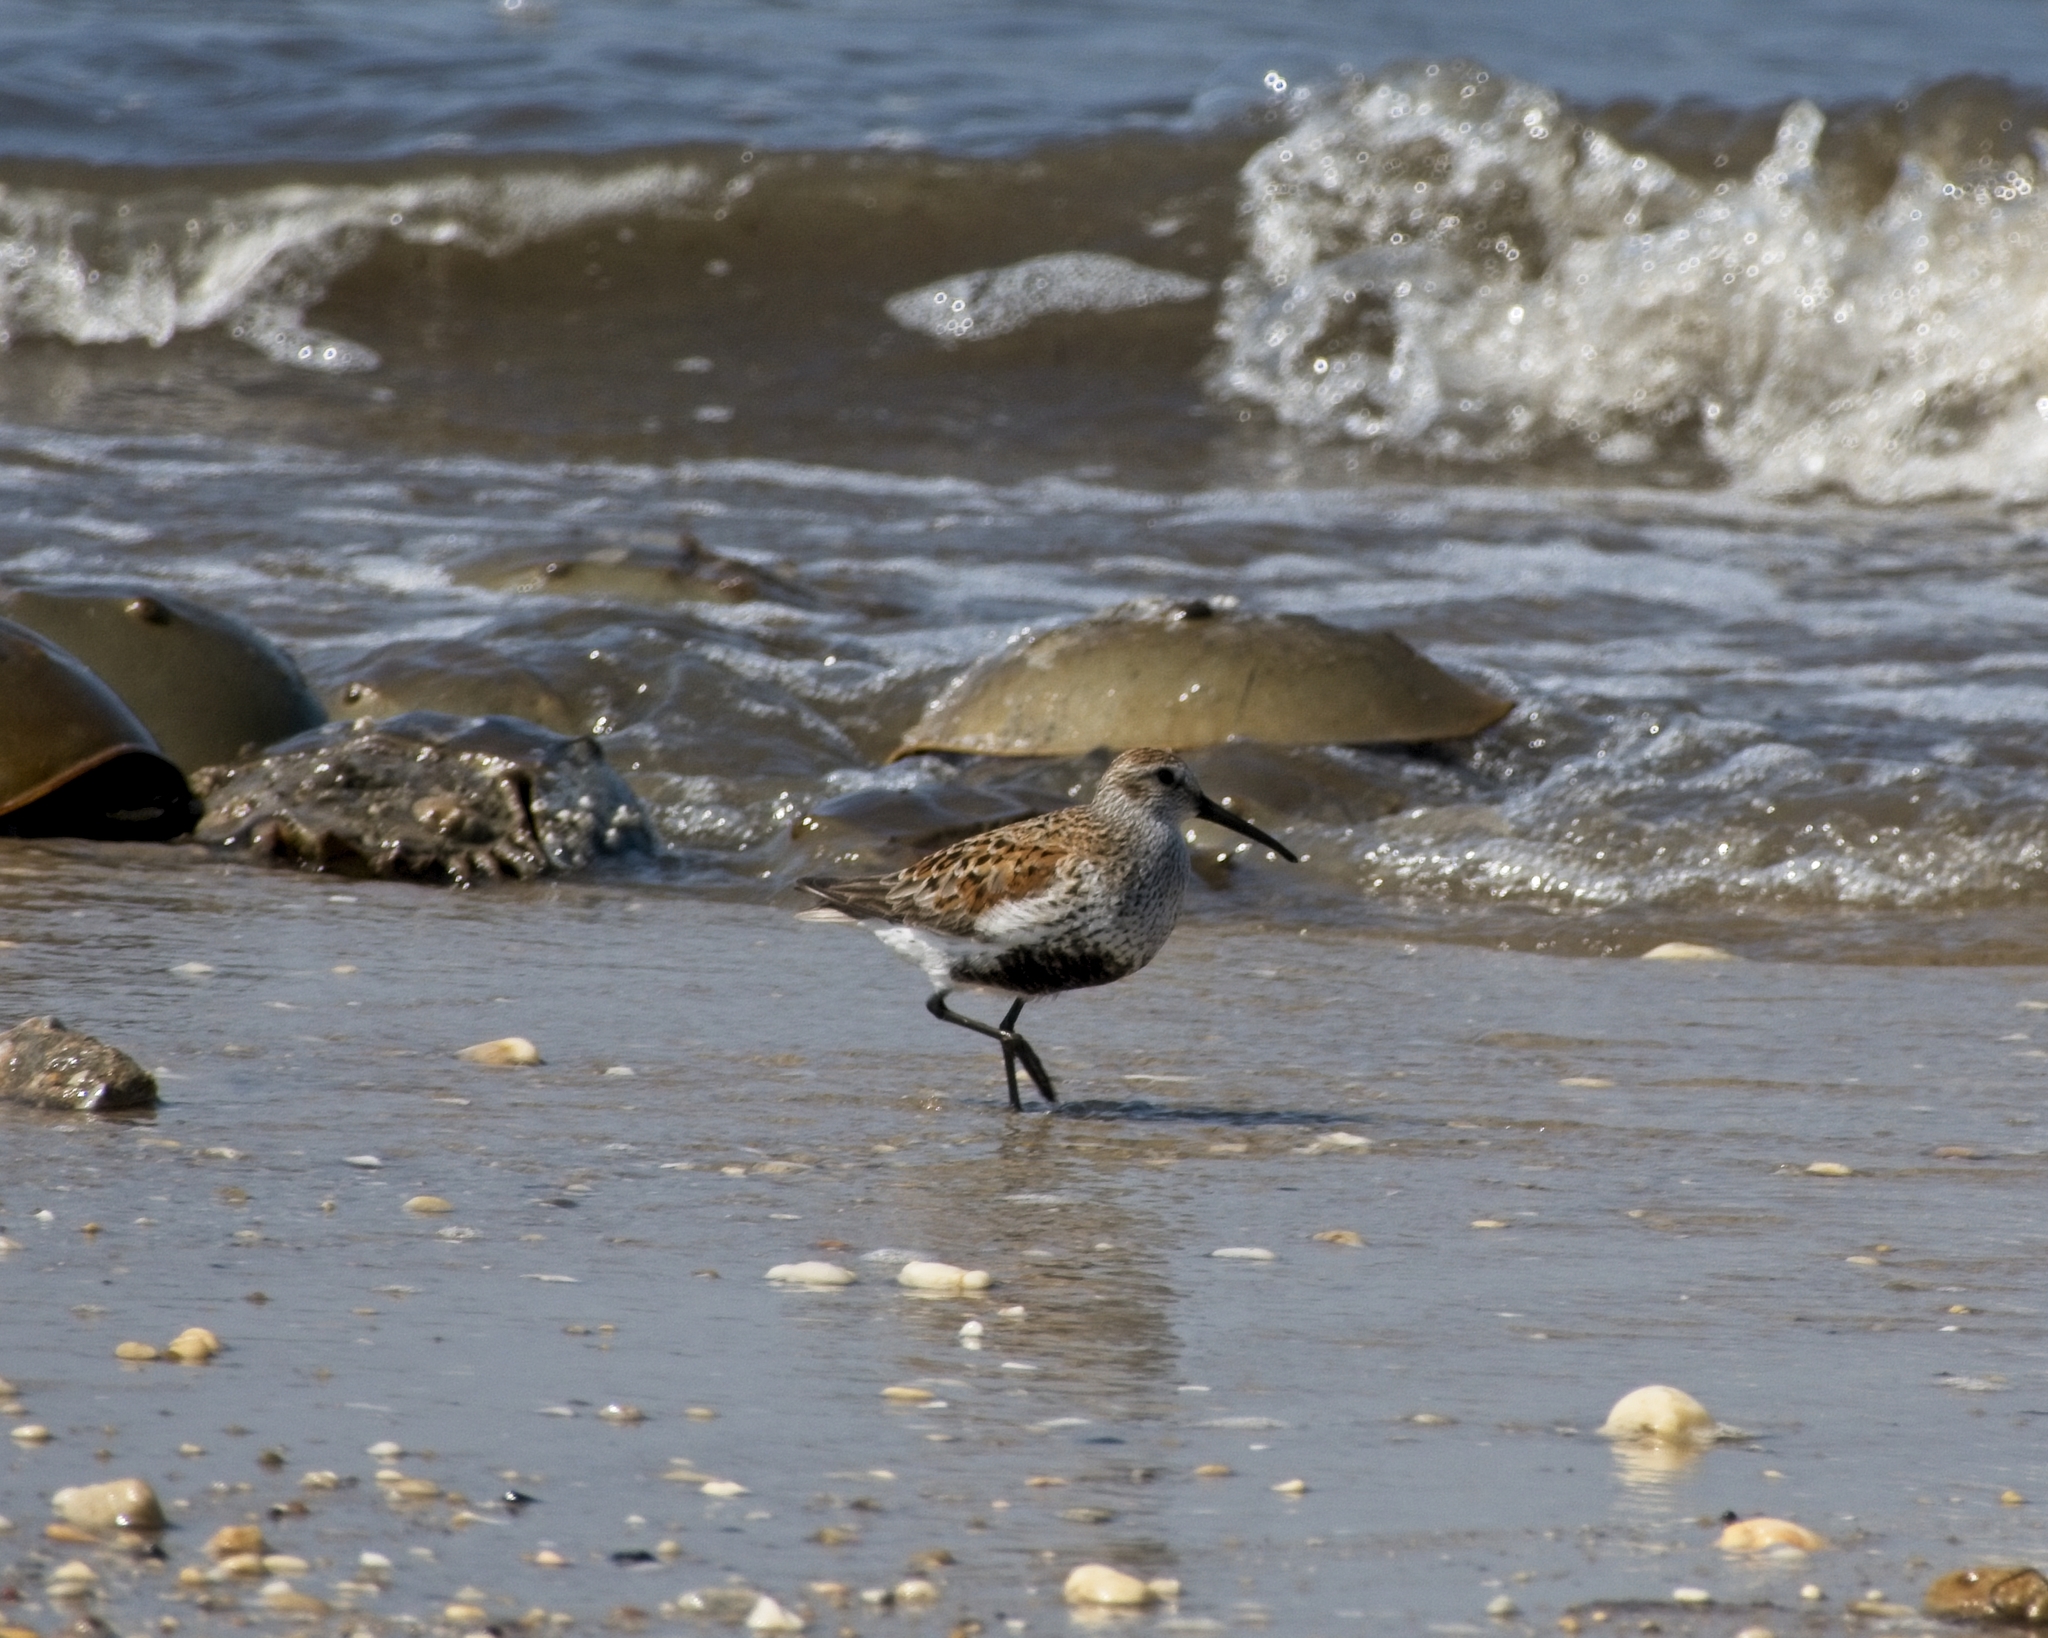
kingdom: Animalia
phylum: Chordata
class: Aves
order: Charadriiformes
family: Scolopacidae
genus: Calidris
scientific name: Calidris alpina
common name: Dunlin
